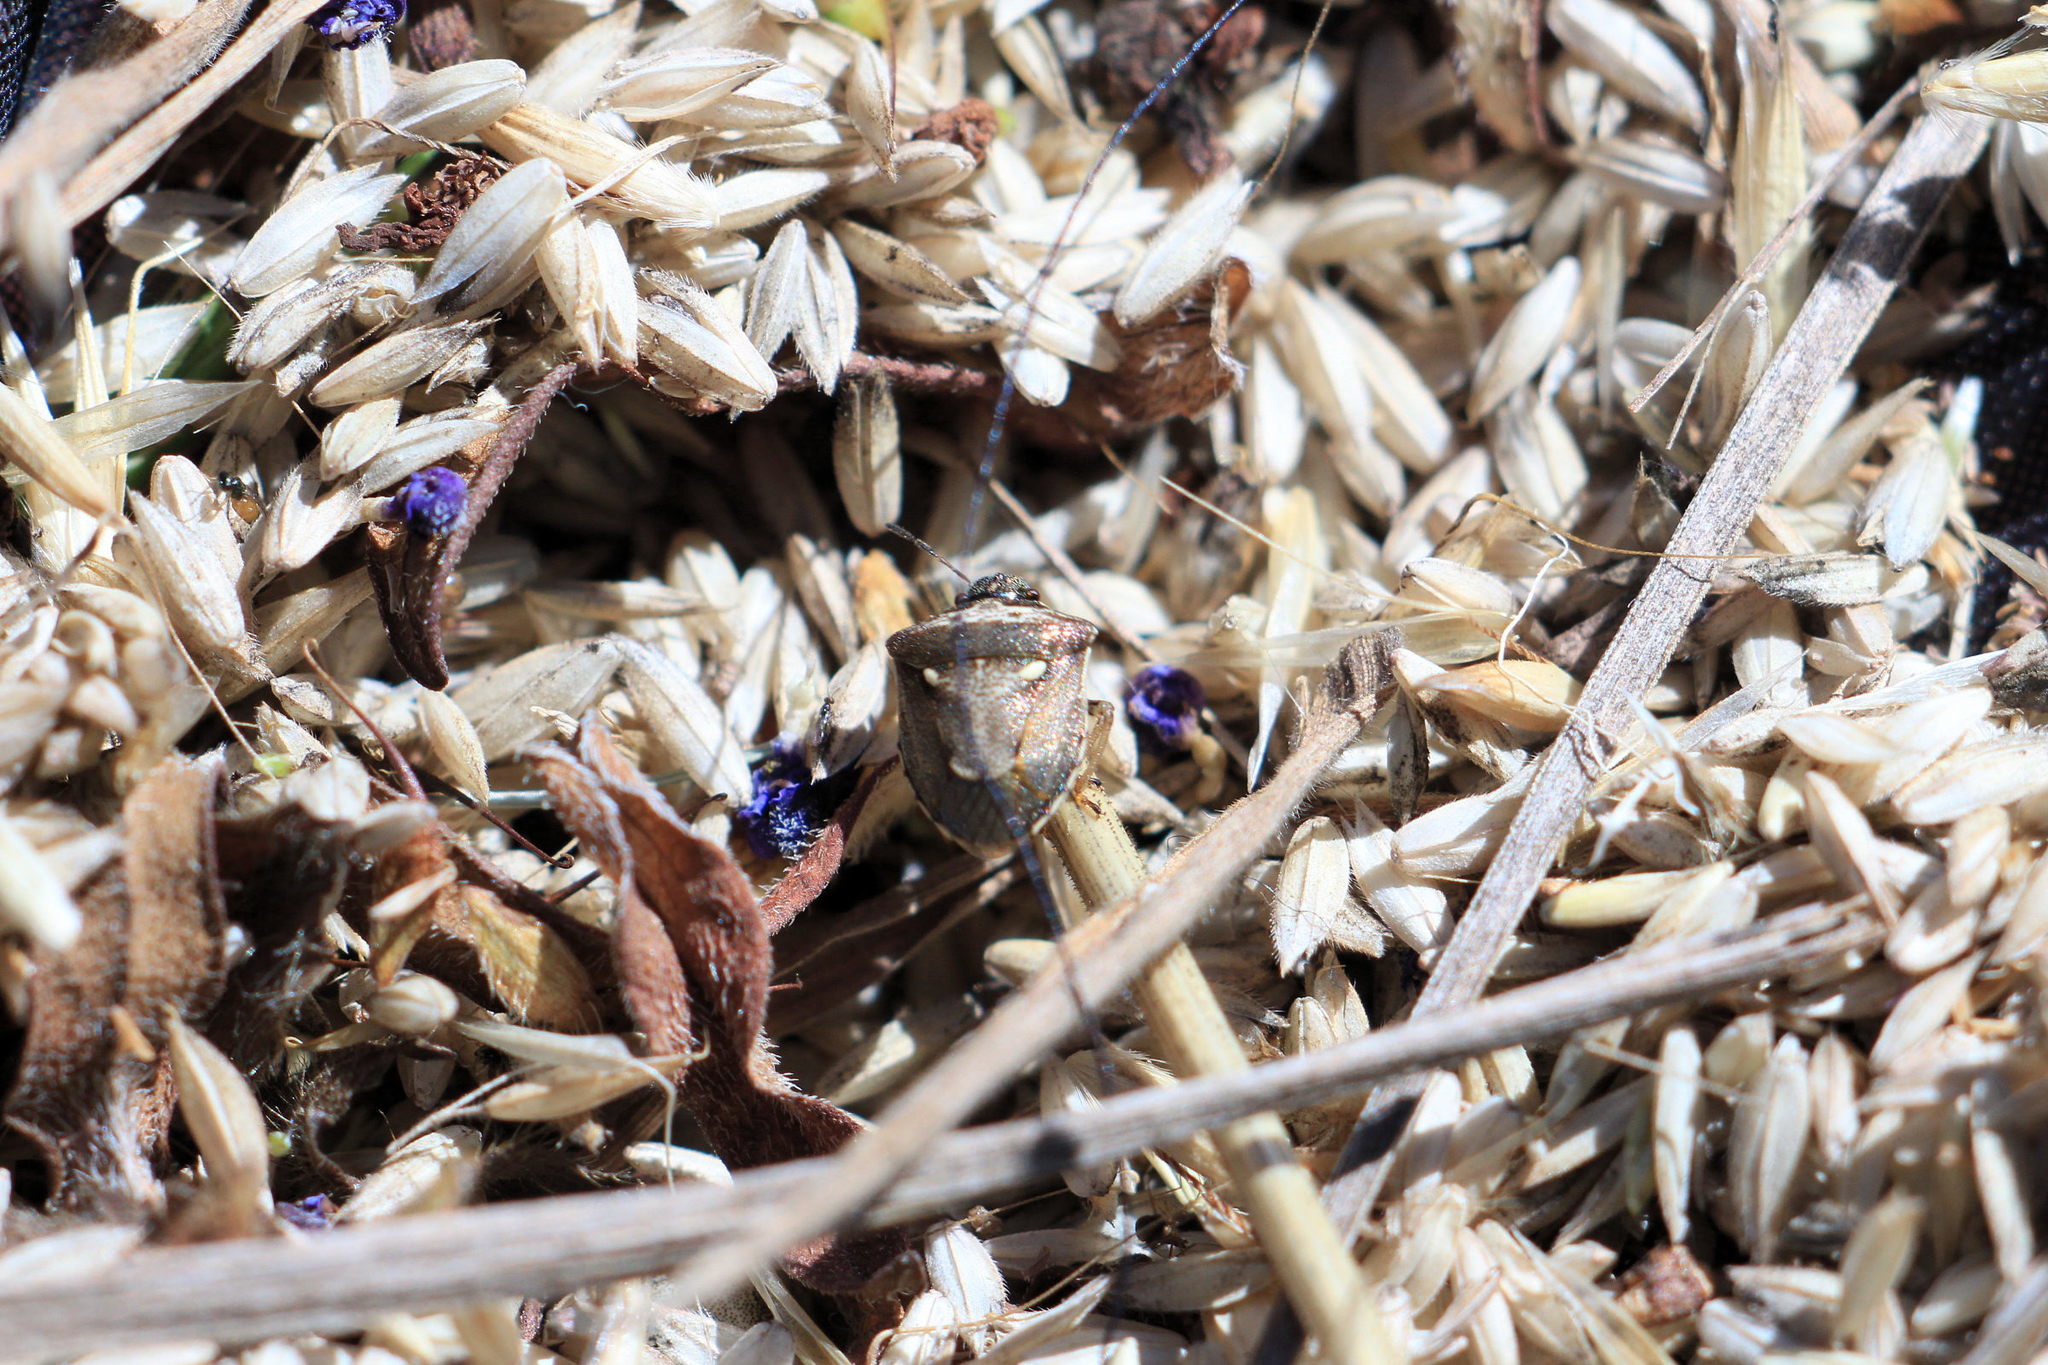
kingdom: Animalia
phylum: Arthropoda
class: Insecta
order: Hemiptera
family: Pentatomidae
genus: Eysarcoris
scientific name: Eysarcoris aeneus
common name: New forest shieldbug
